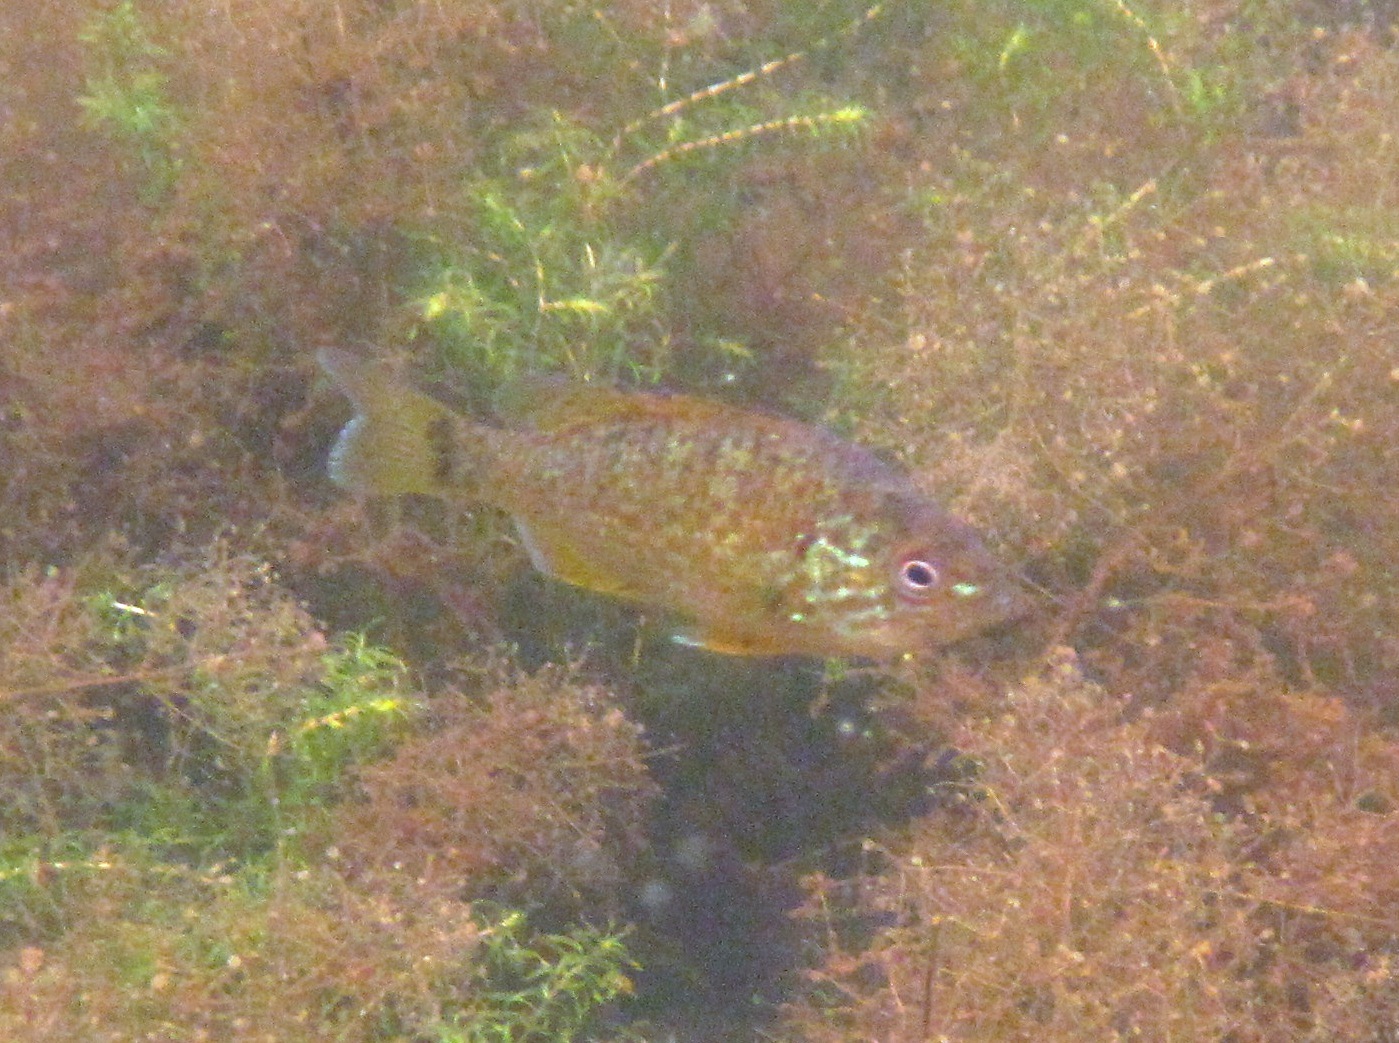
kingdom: Animalia
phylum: Chordata
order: Perciformes
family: Centrarchidae
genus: Lepomis
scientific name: Lepomis gibbosus
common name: Pumpkinseed
